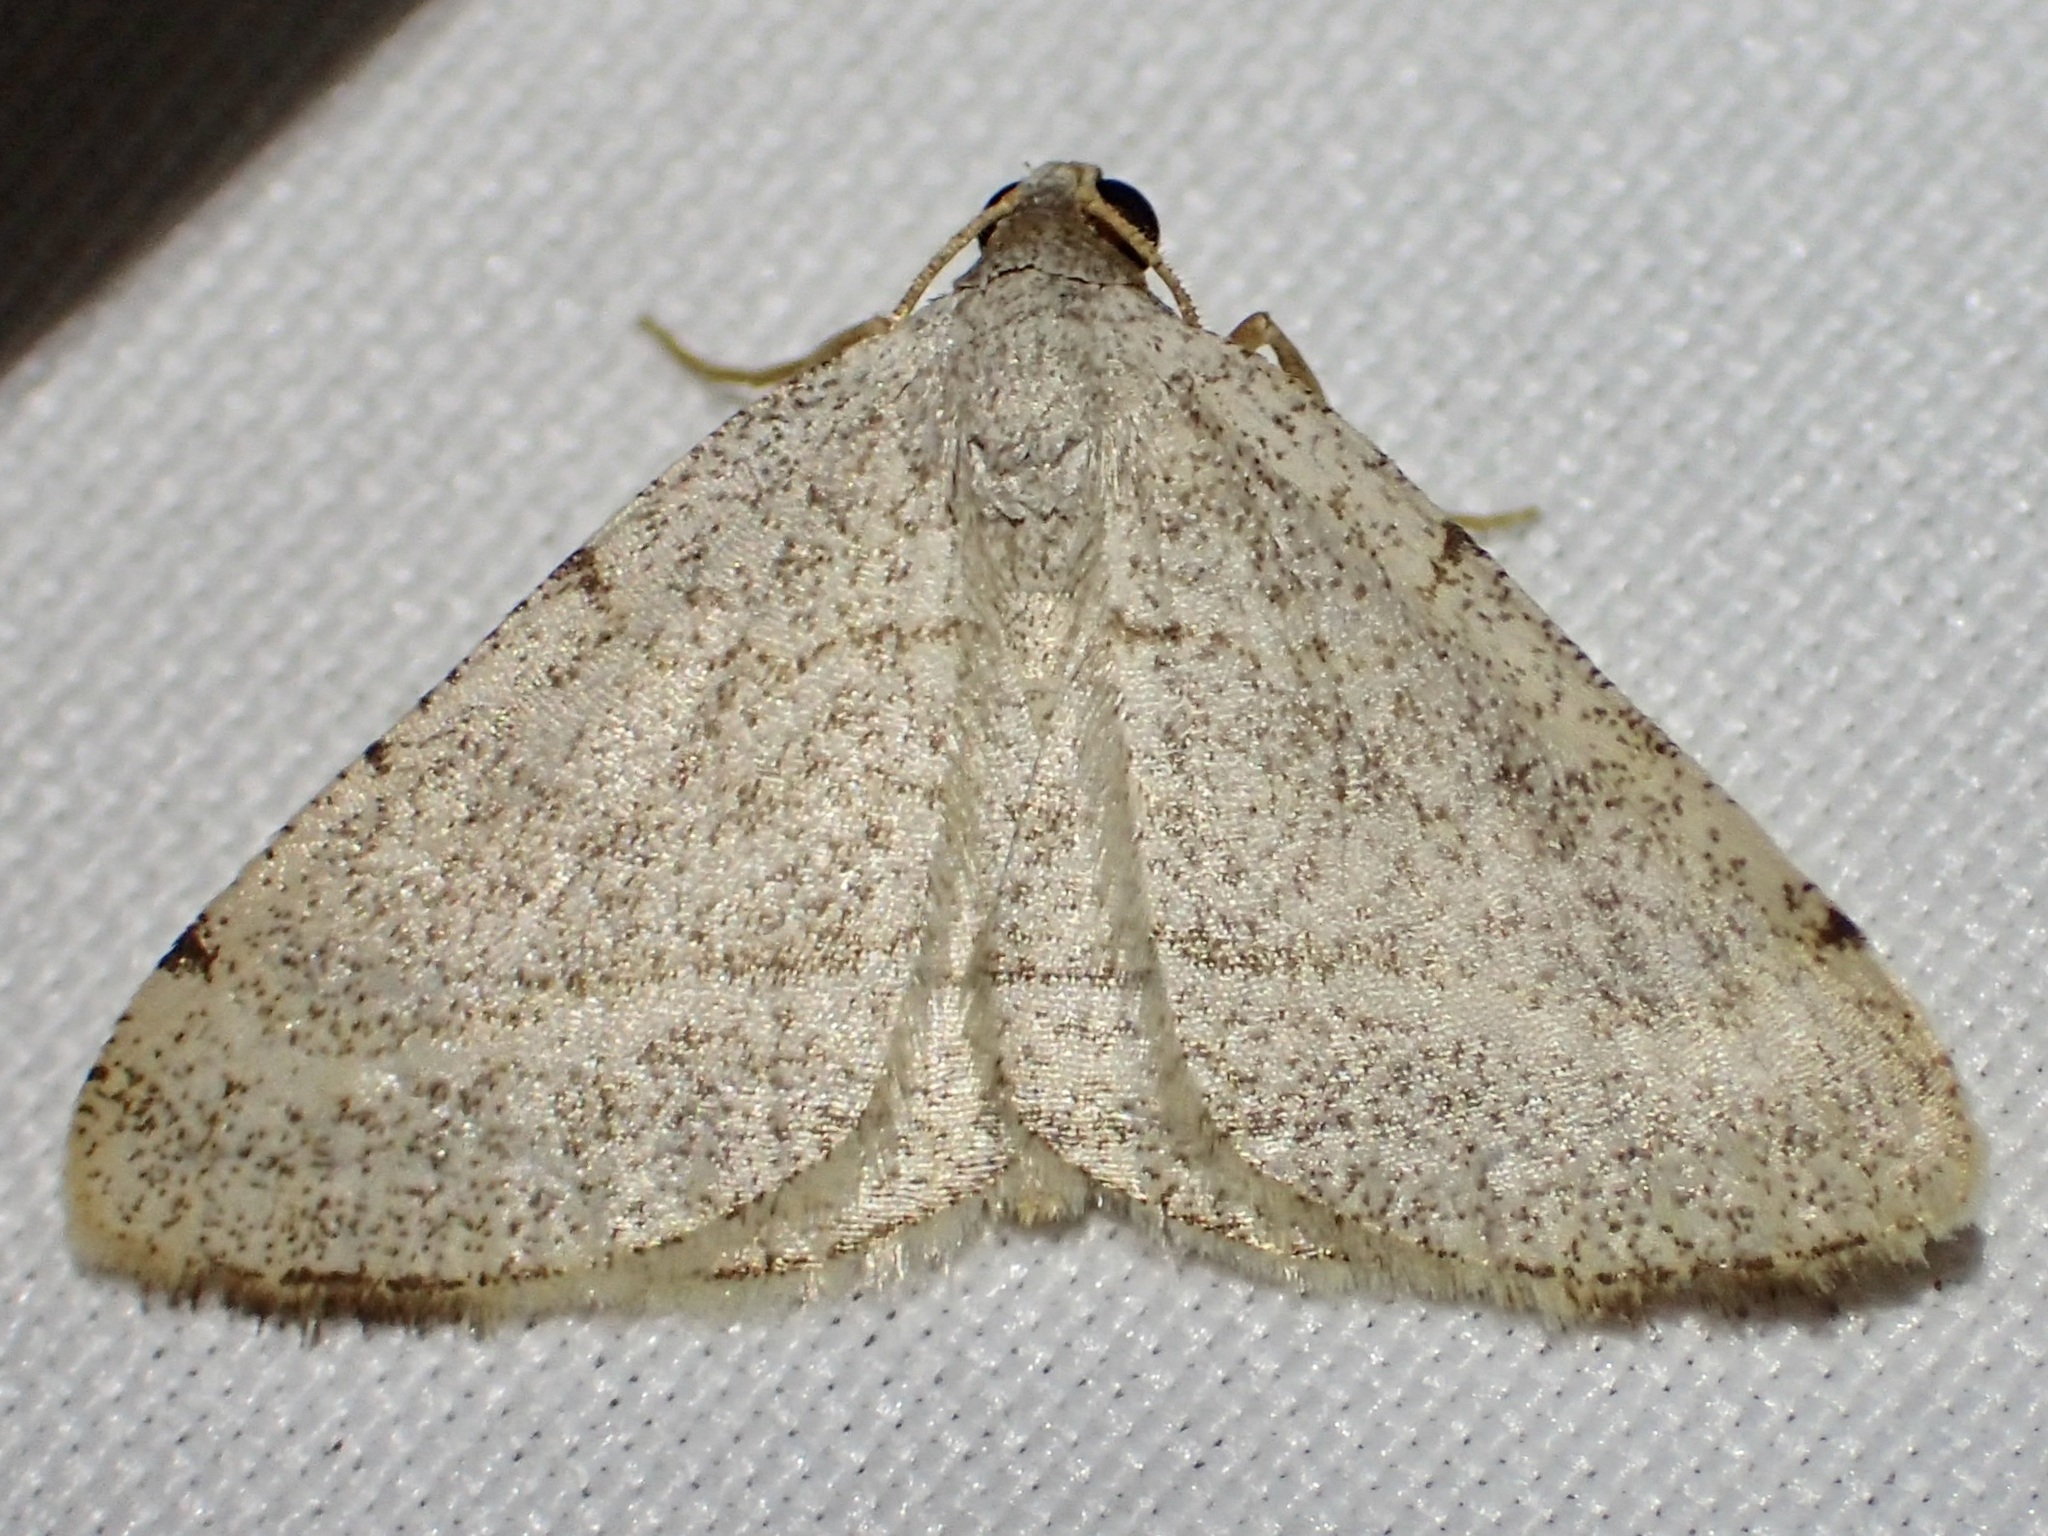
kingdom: Animalia
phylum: Arthropoda
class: Insecta
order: Lepidoptera
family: Geometridae
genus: Macaria
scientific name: Macaria octolineata
